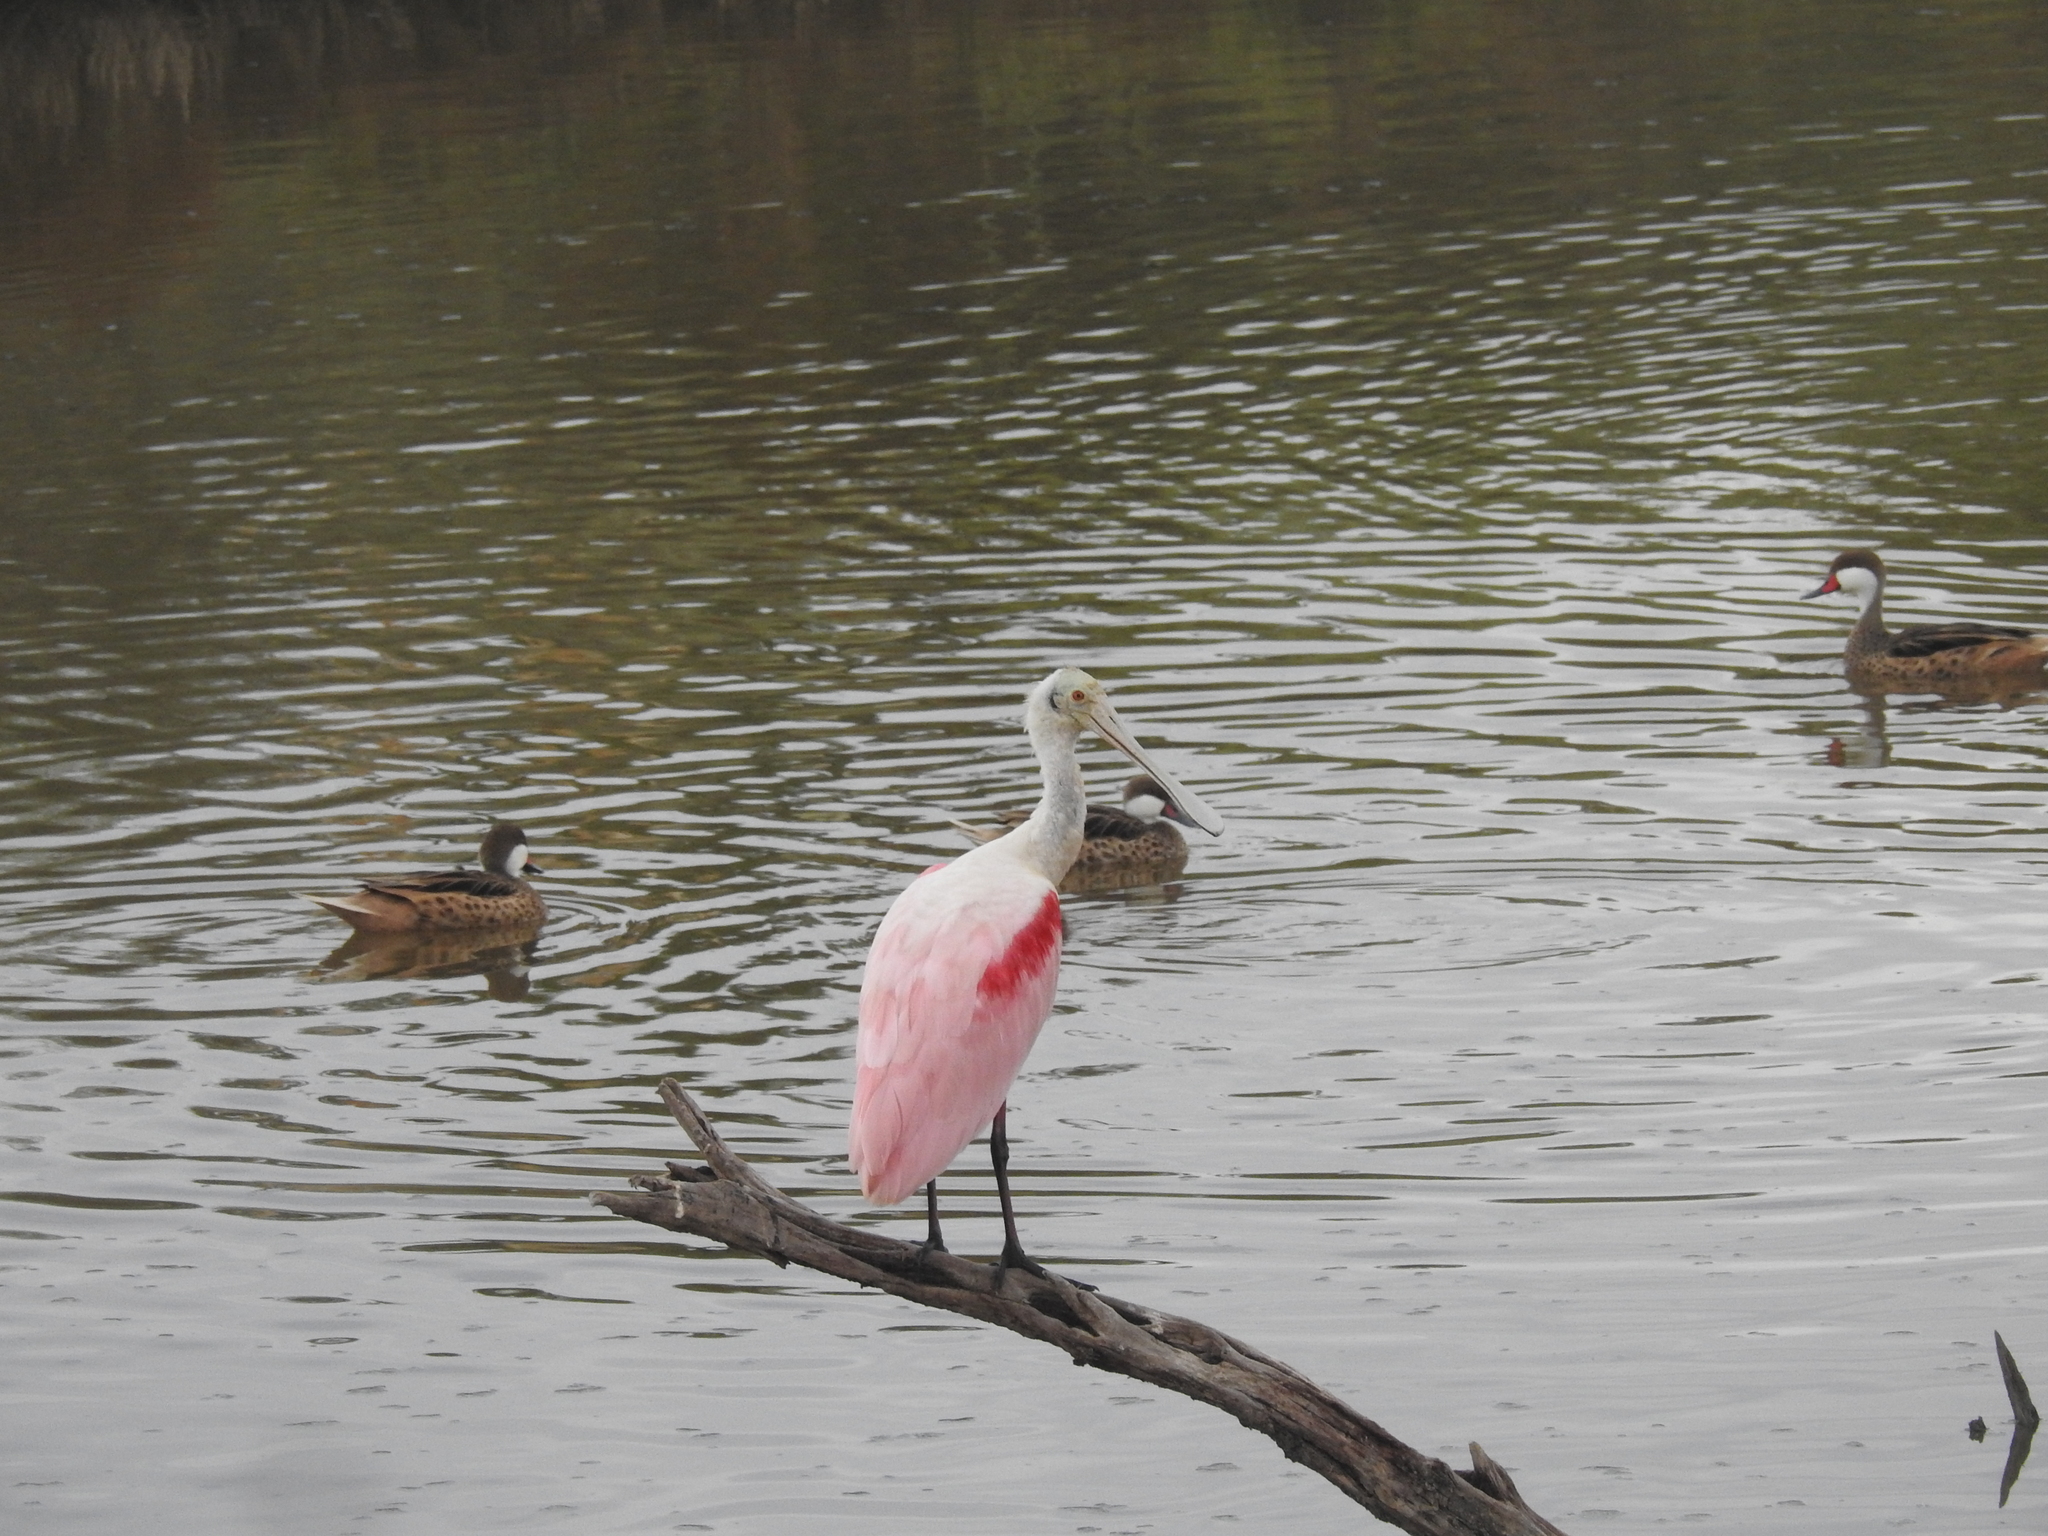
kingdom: Animalia
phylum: Chordata
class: Aves
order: Pelecaniformes
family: Threskiornithidae
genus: Platalea
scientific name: Platalea ajaja
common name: Roseate spoonbill
